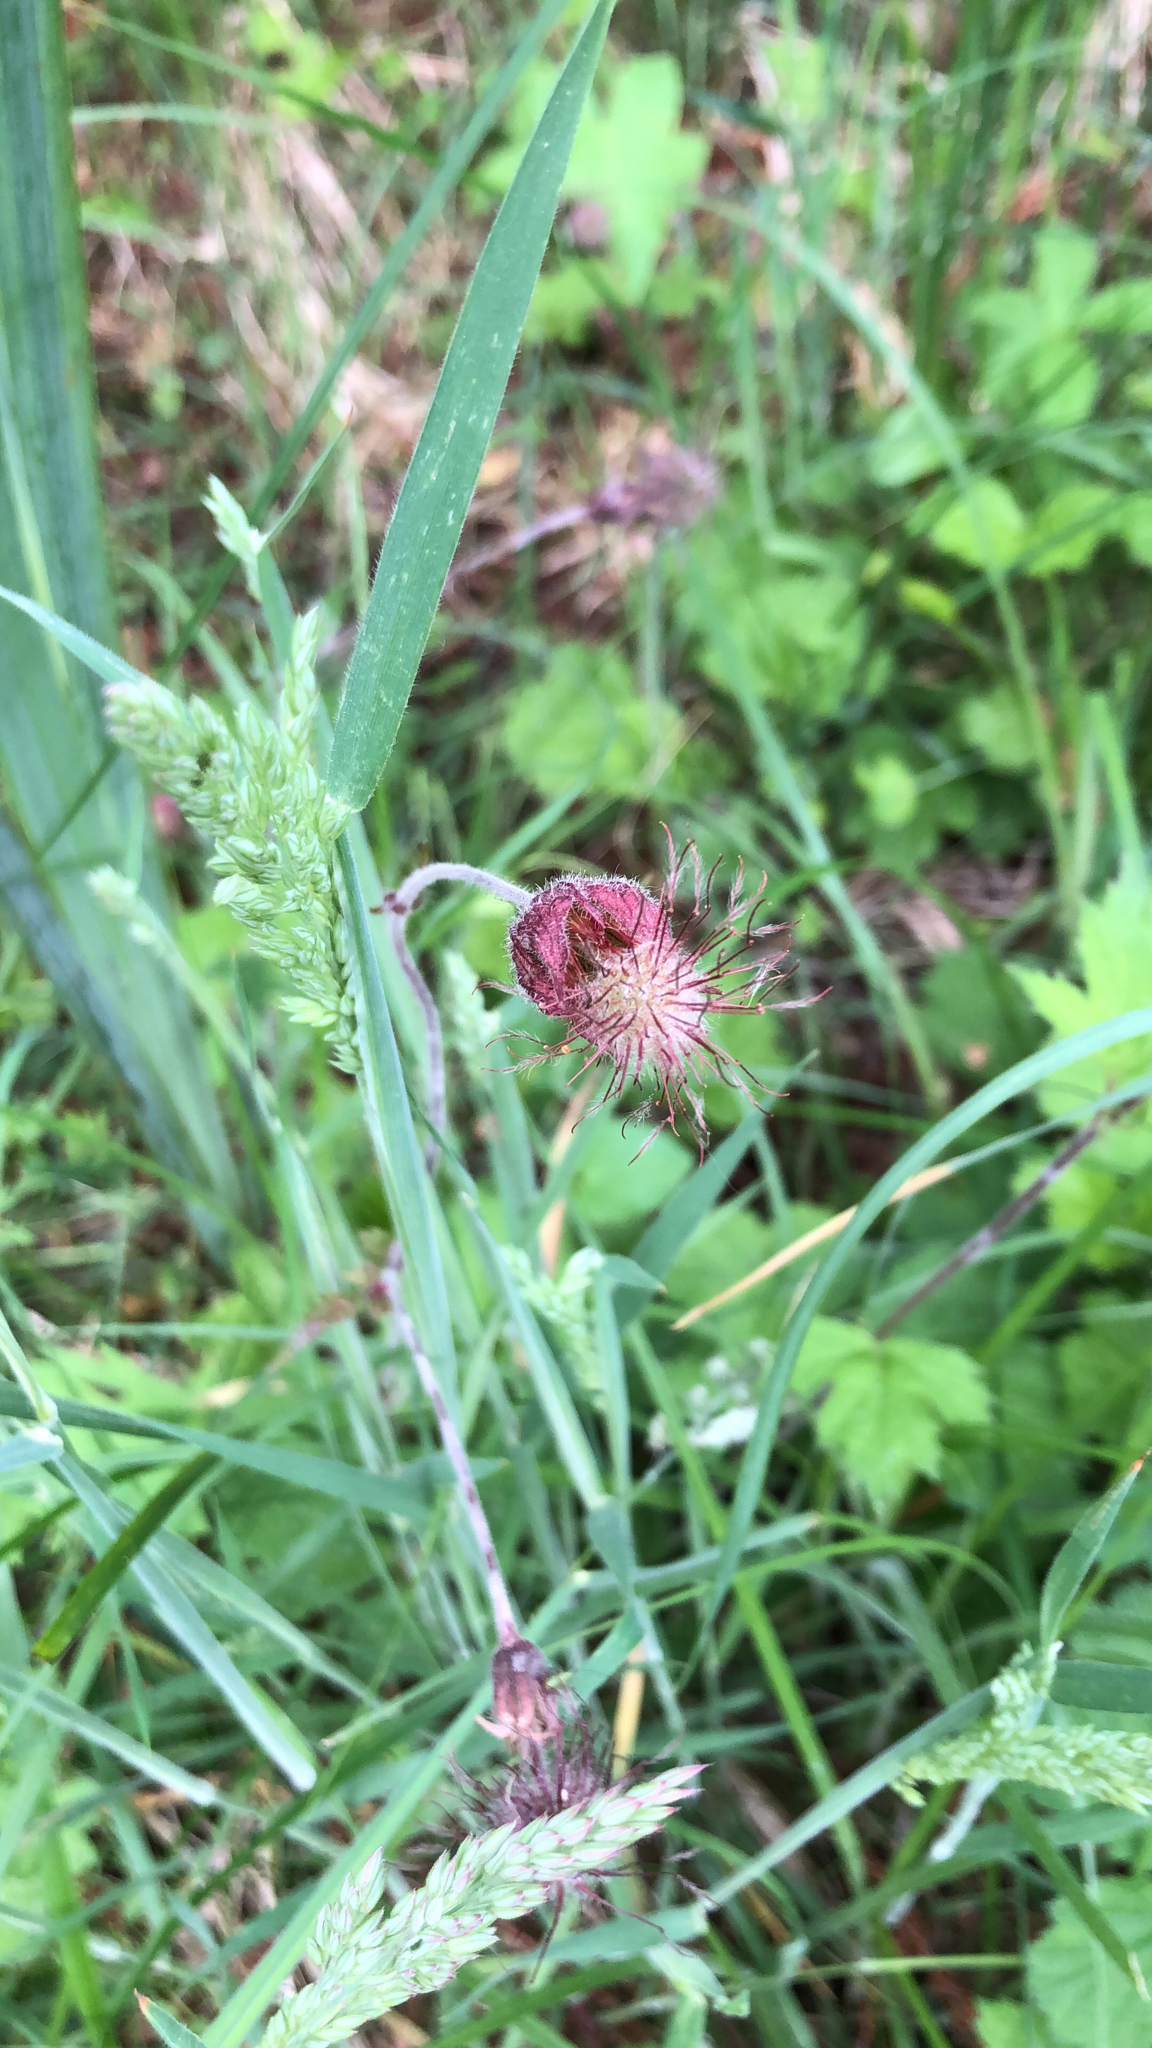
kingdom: Plantae
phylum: Tracheophyta
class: Magnoliopsida
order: Rosales
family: Rosaceae
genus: Geum
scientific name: Geum rivale
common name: Water avens
